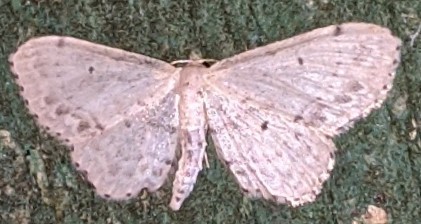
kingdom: Animalia
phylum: Arthropoda
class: Insecta
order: Lepidoptera
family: Geometridae
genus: Idaea
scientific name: Idaea dimidiata
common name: Single-dotted wave
